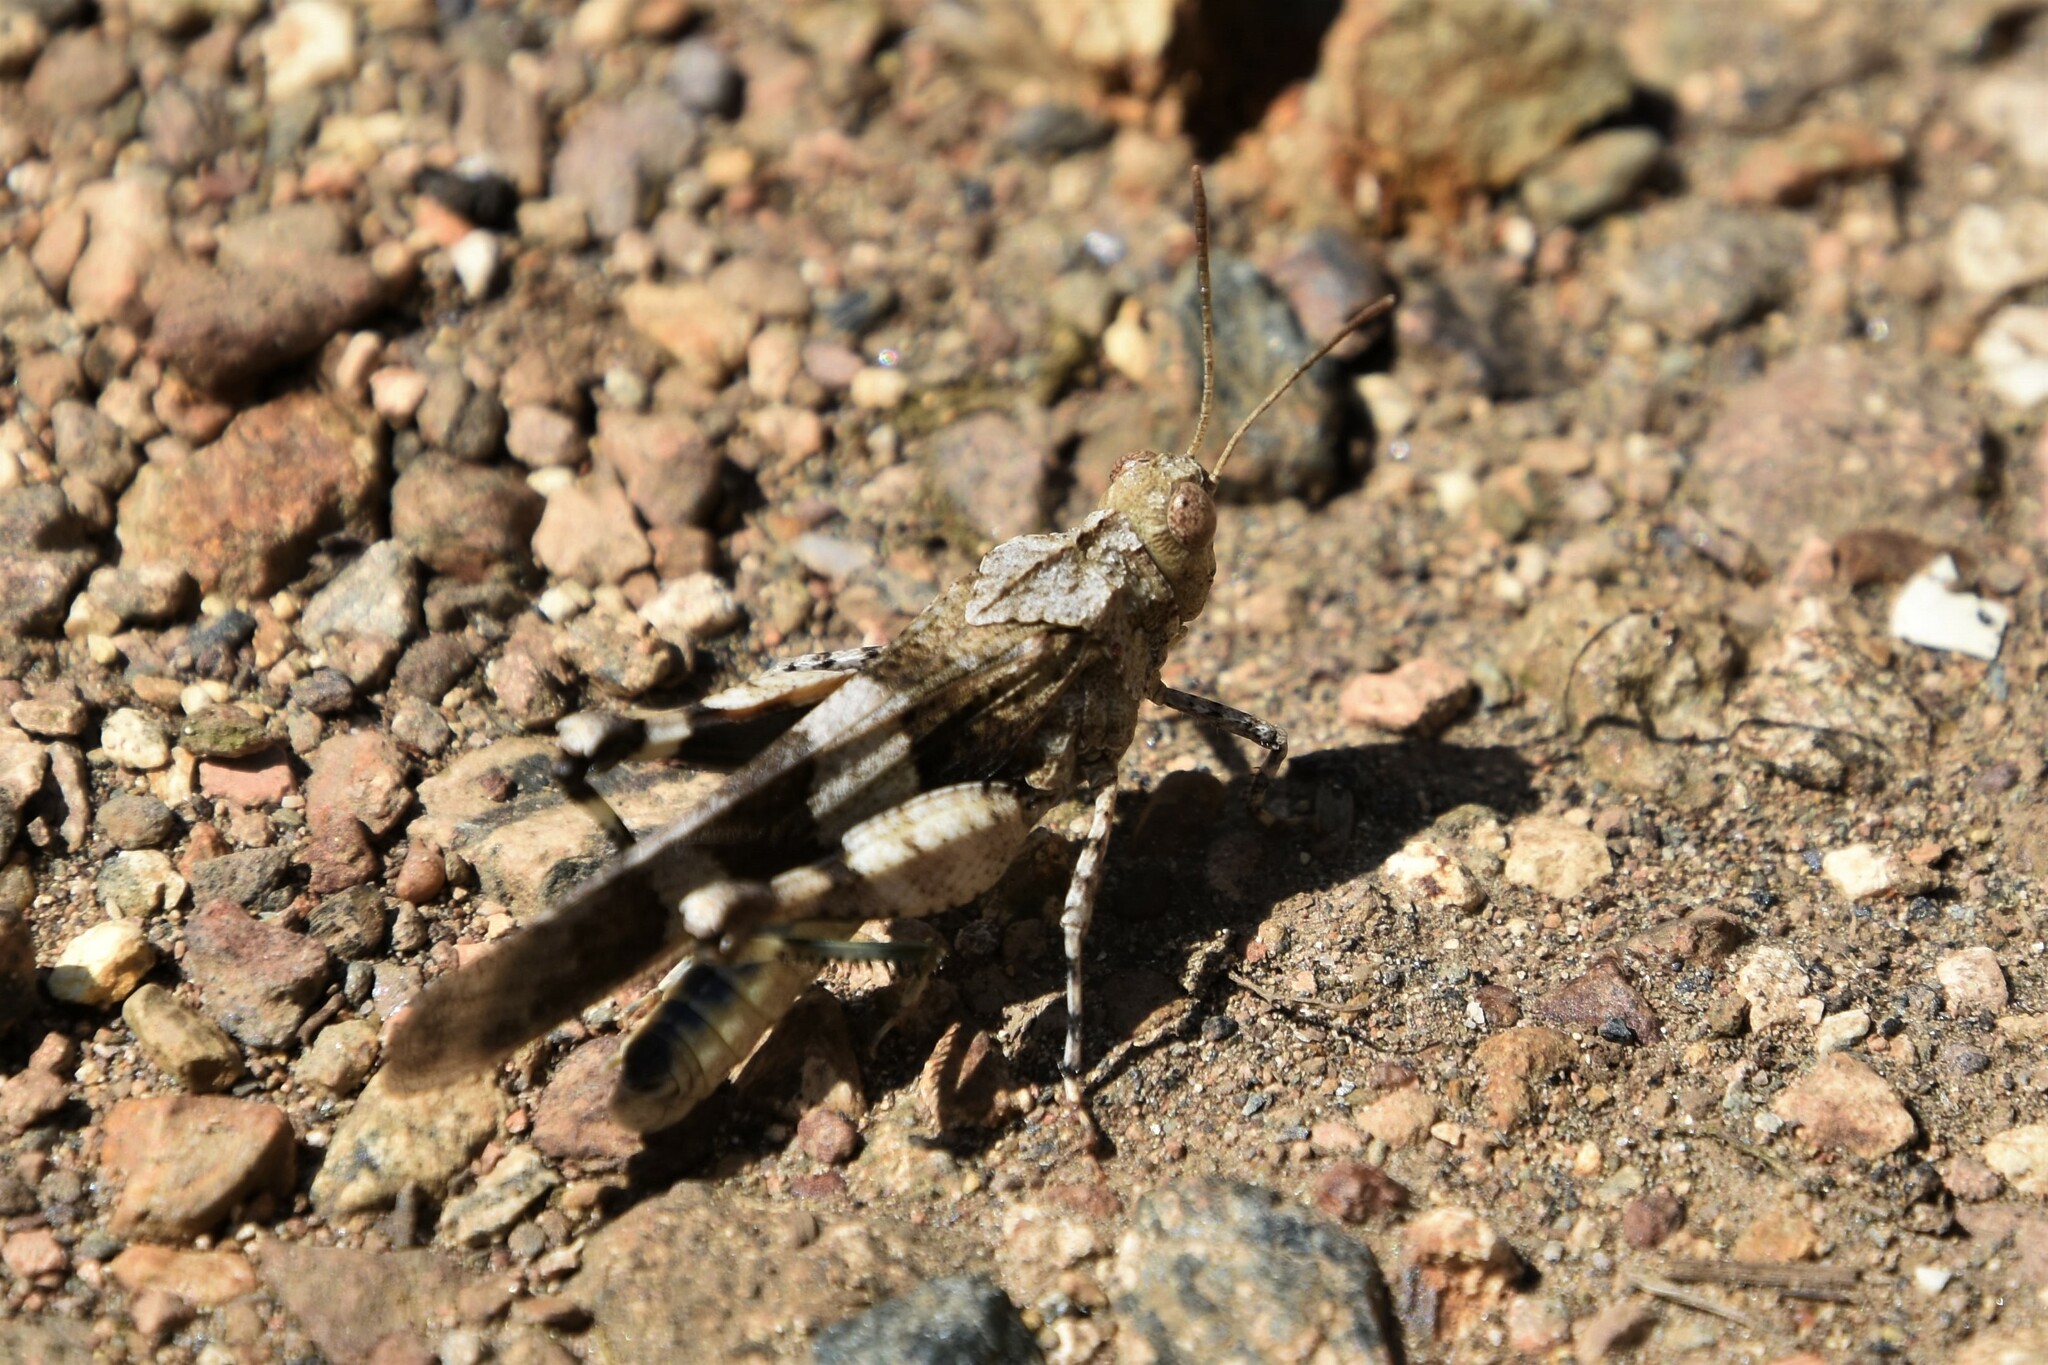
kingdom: Animalia
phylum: Arthropoda
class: Insecta
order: Orthoptera
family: Acrididae
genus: Oedipoda
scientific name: Oedipoda caerulescens
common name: Blue-winged grasshopper
